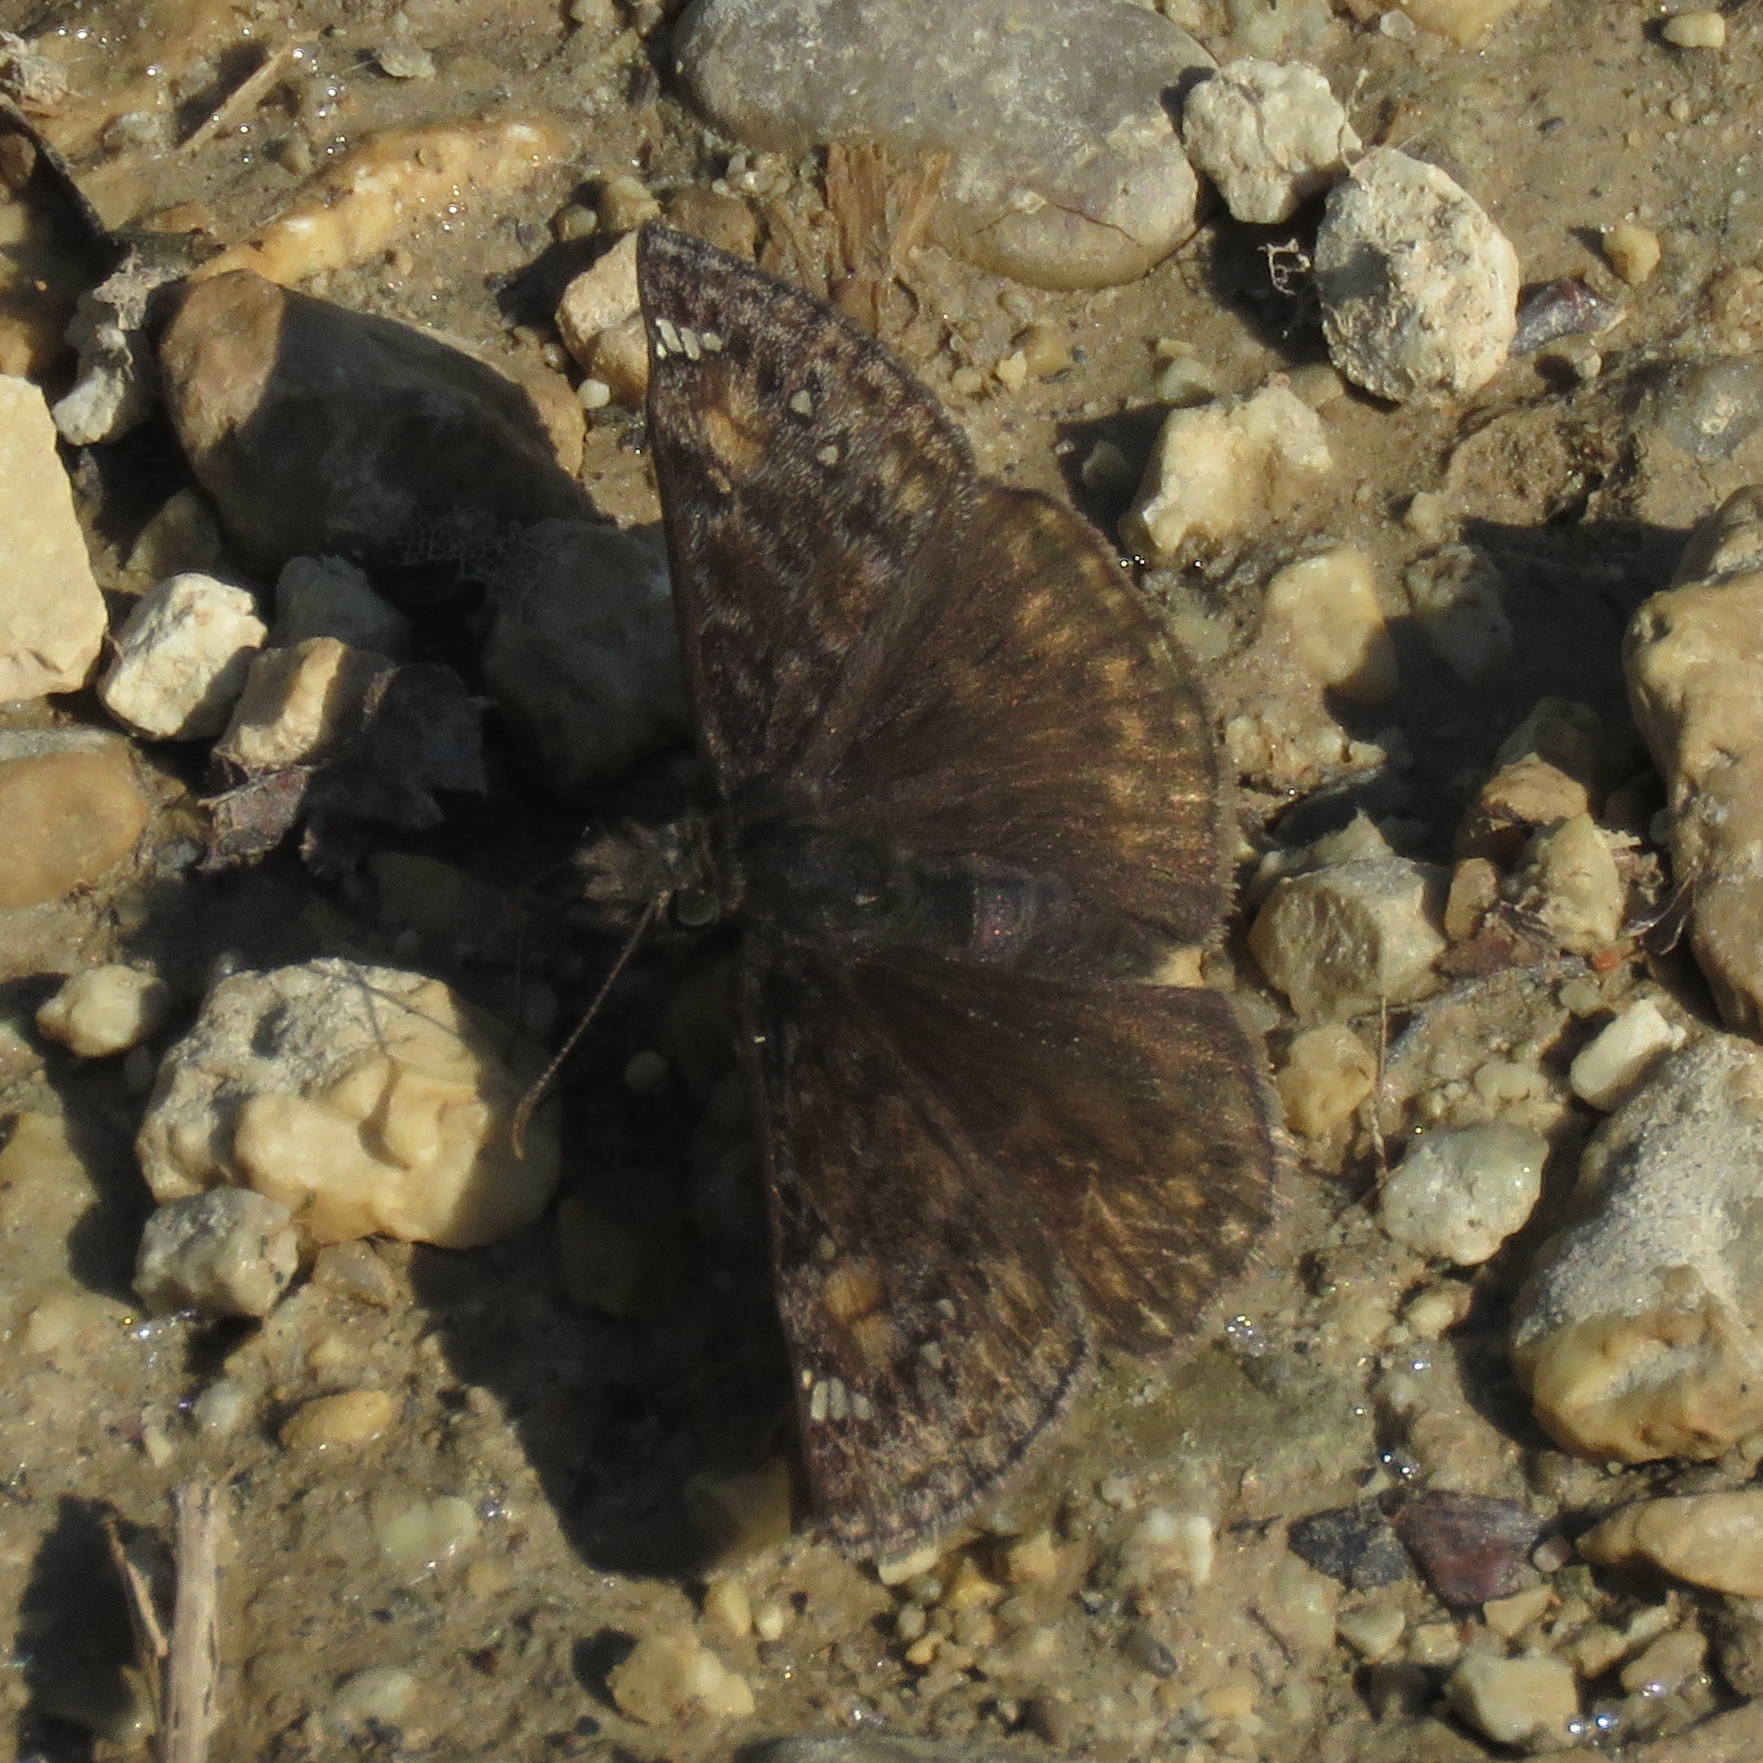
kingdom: Animalia
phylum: Arthropoda
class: Insecta
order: Lepidoptera
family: Hesperiidae
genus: Erynnis
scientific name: Erynnis juvenalis
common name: Juvenal's duskywing
